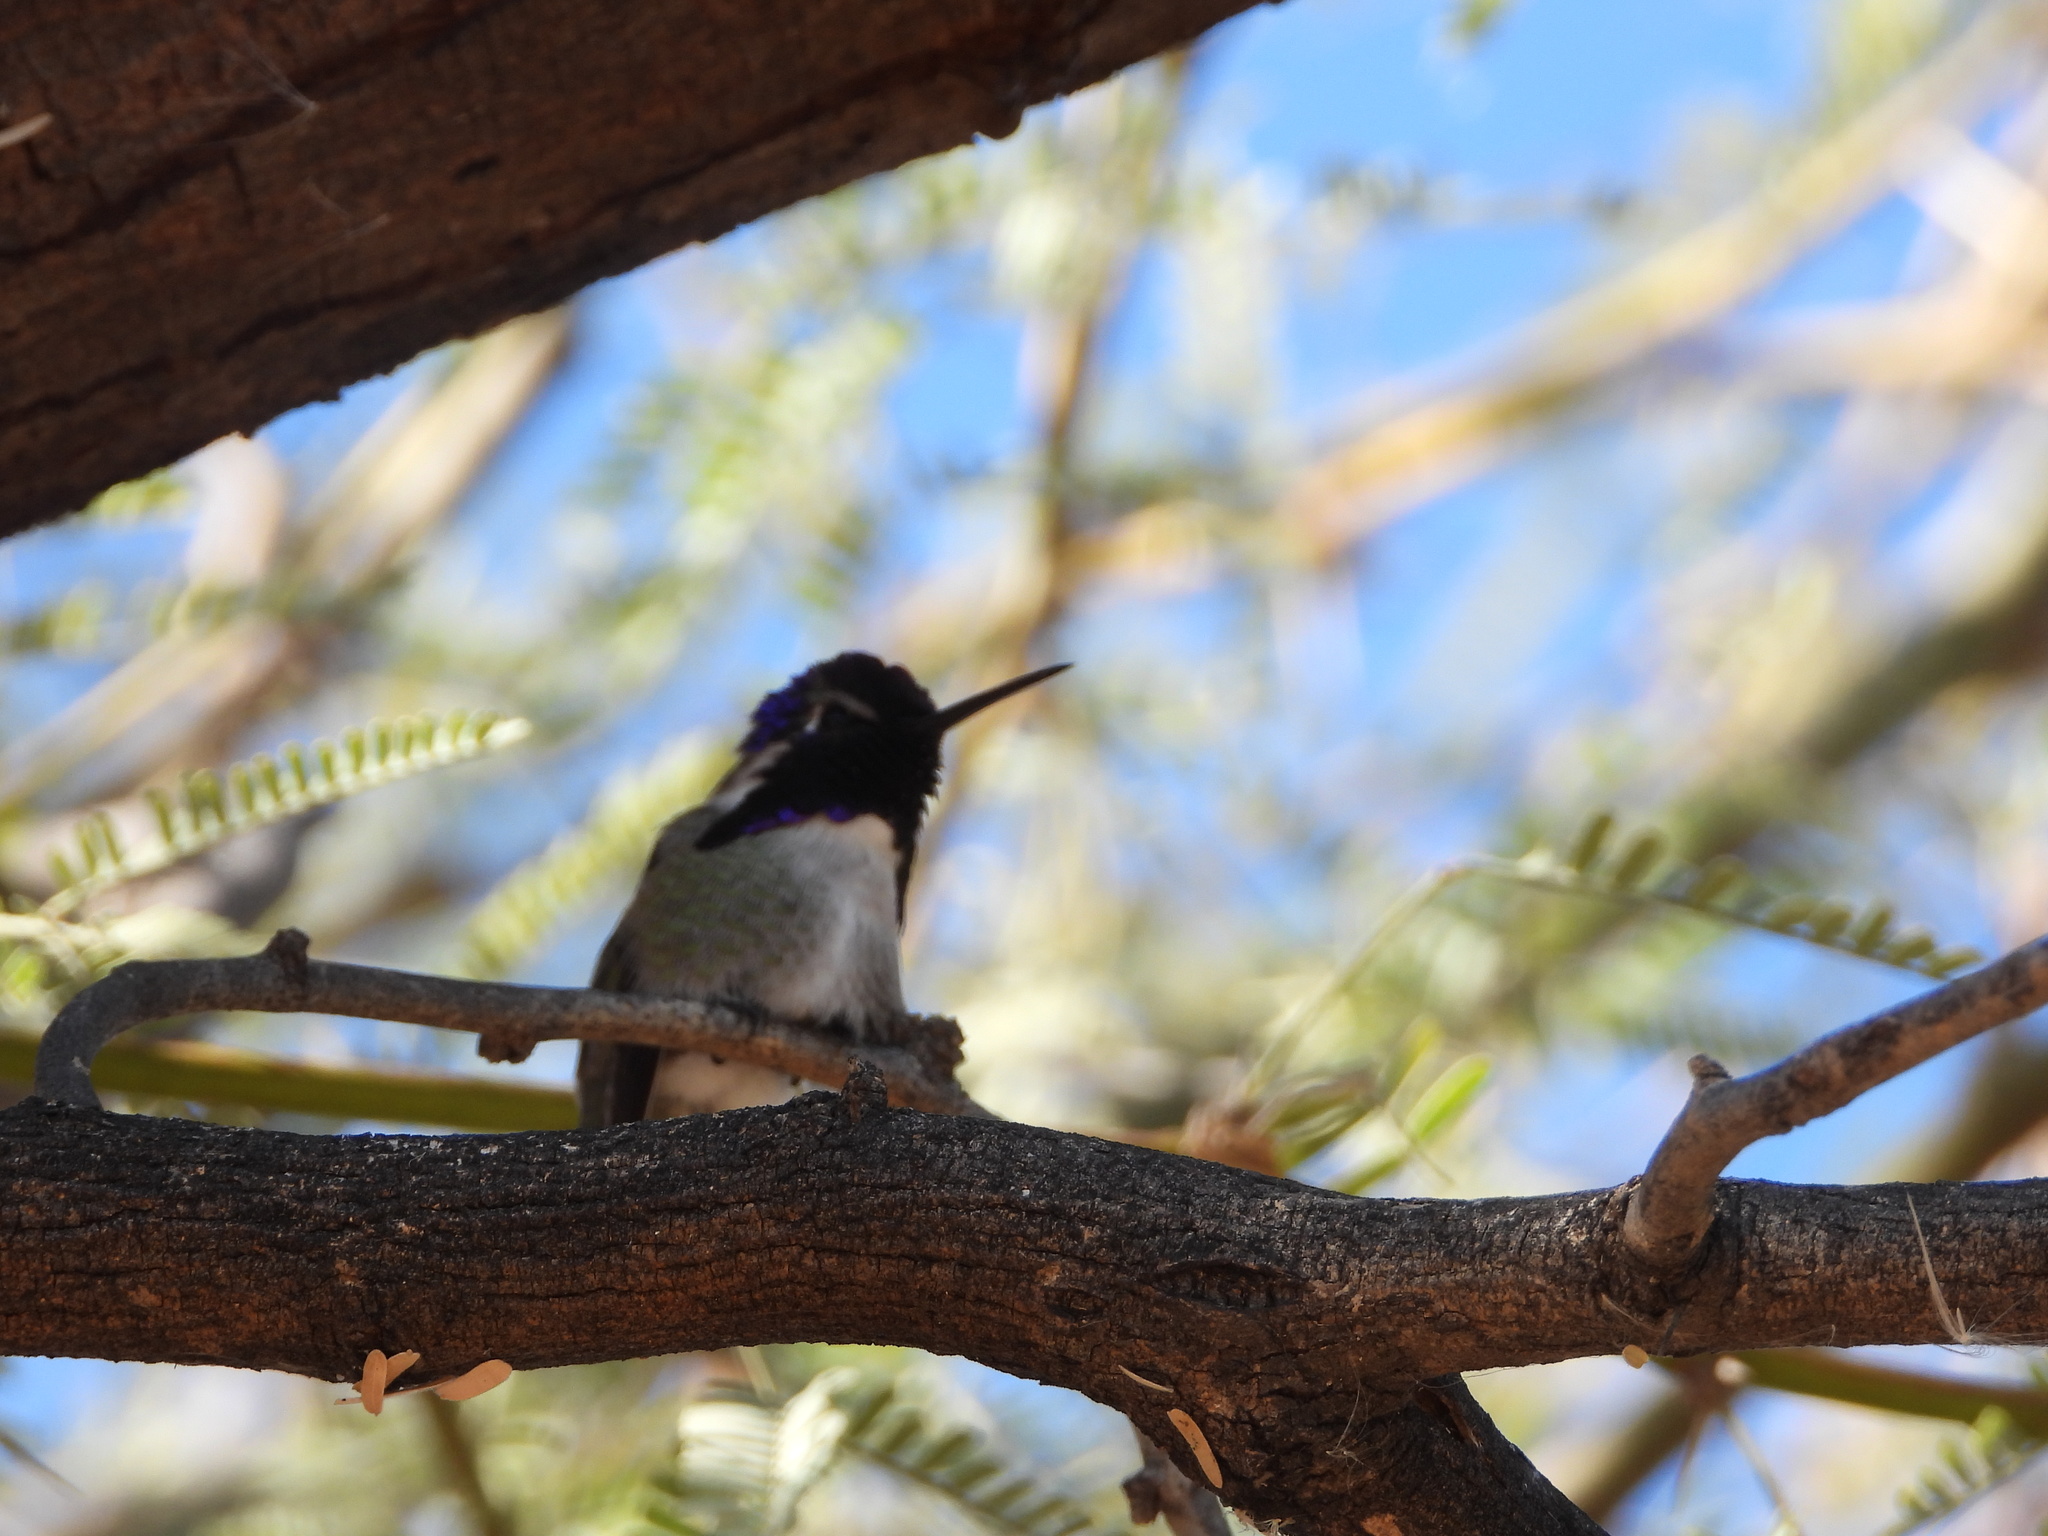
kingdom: Animalia
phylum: Chordata
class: Aves
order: Apodiformes
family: Trochilidae
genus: Calypte
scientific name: Calypte costae
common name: Costa's hummingbird
